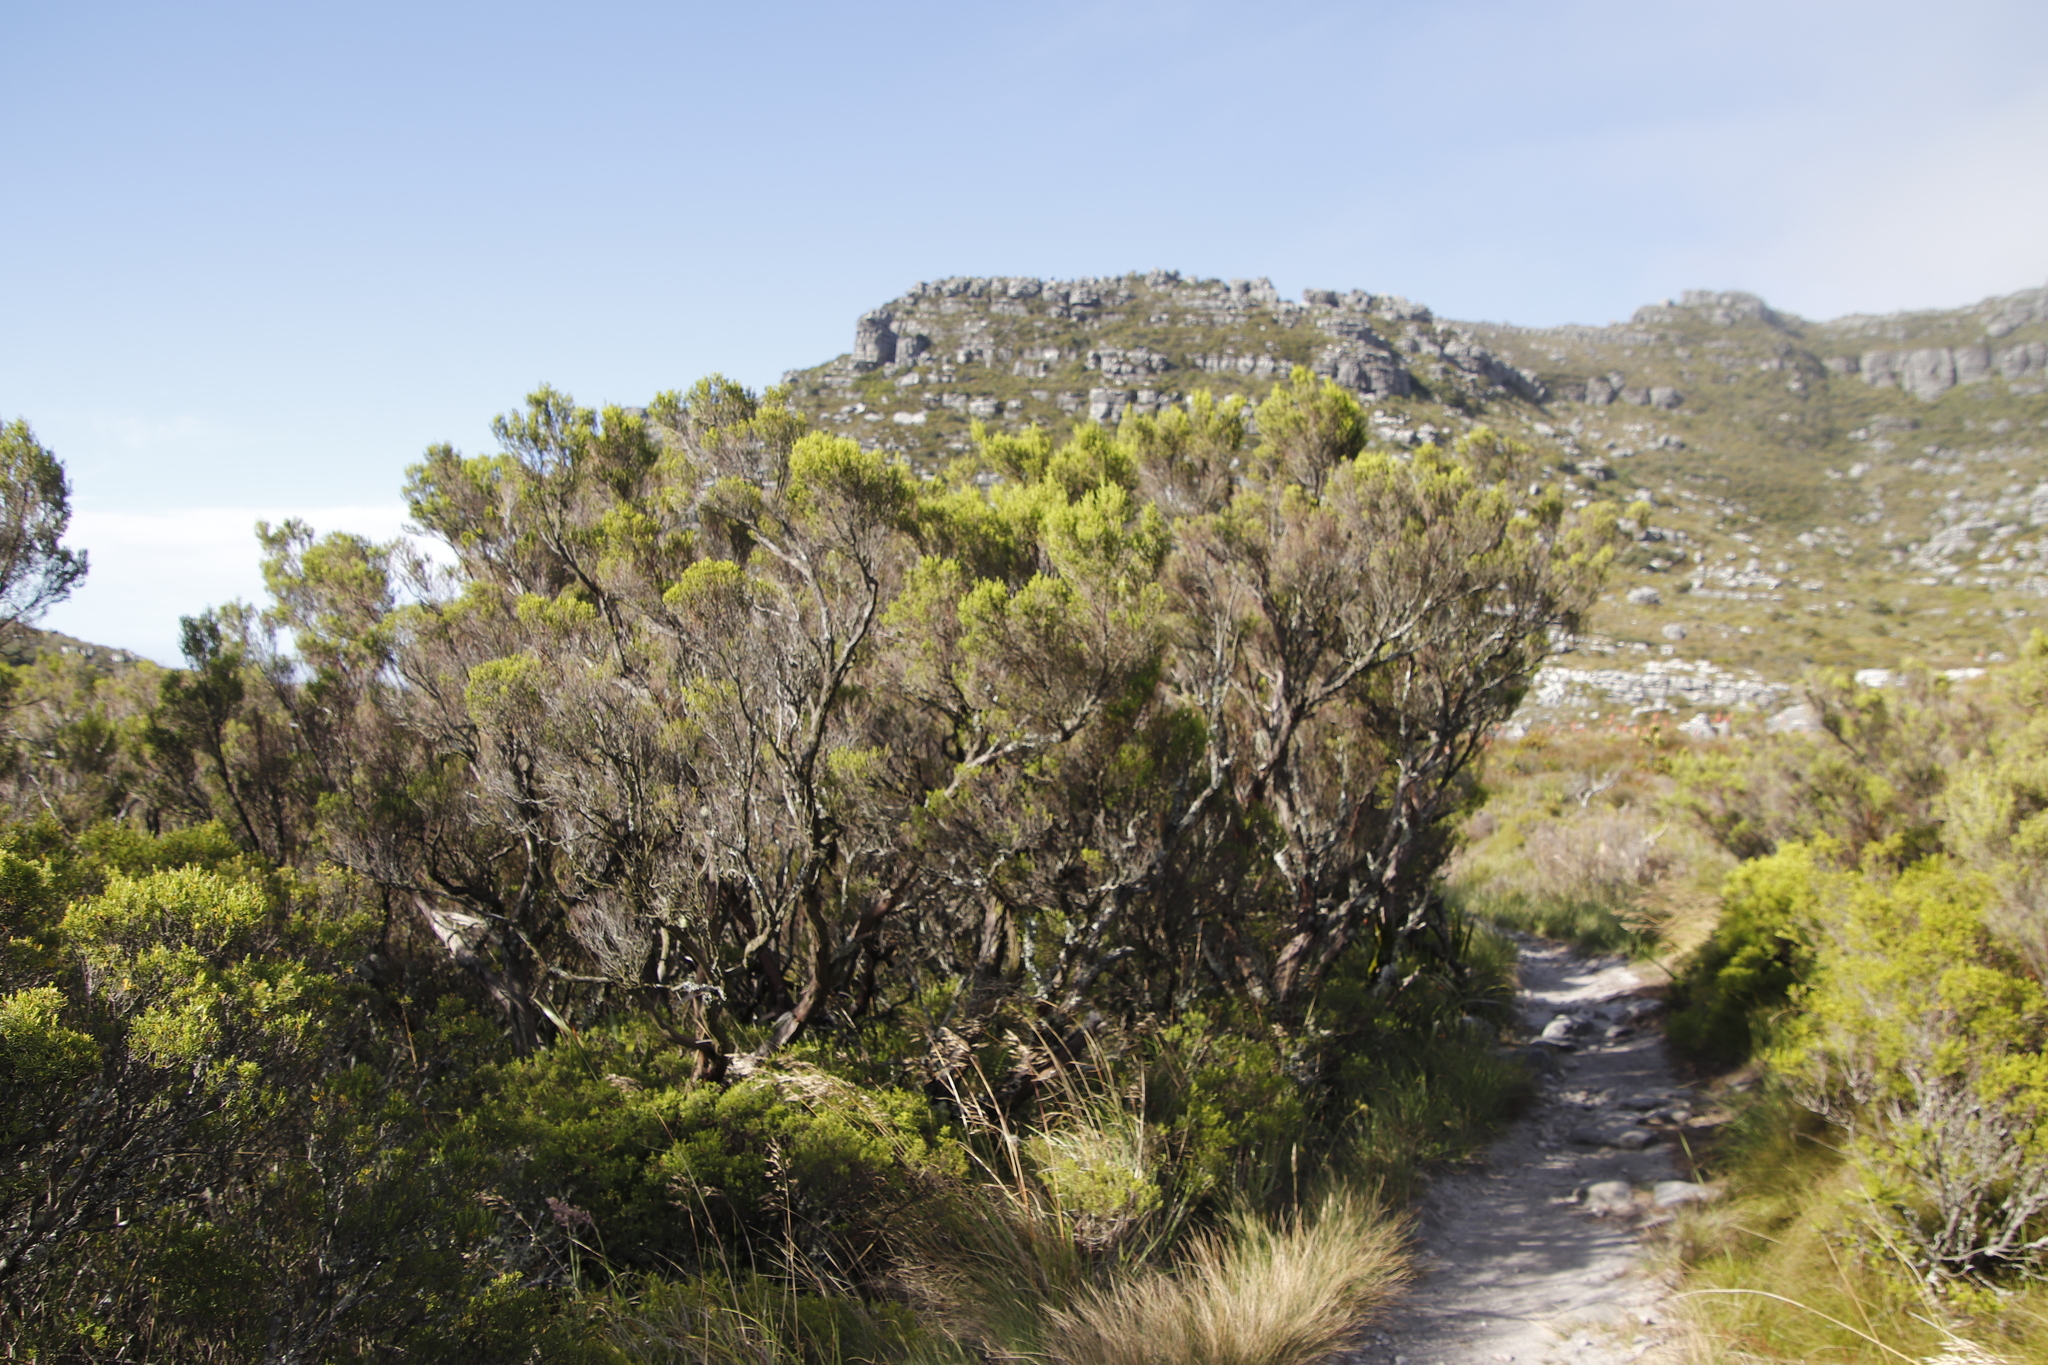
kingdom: Plantae
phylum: Tracheophyta
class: Magnoliopsida
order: Ericales
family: Ericaceae
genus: Erica
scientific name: Erica tristis
